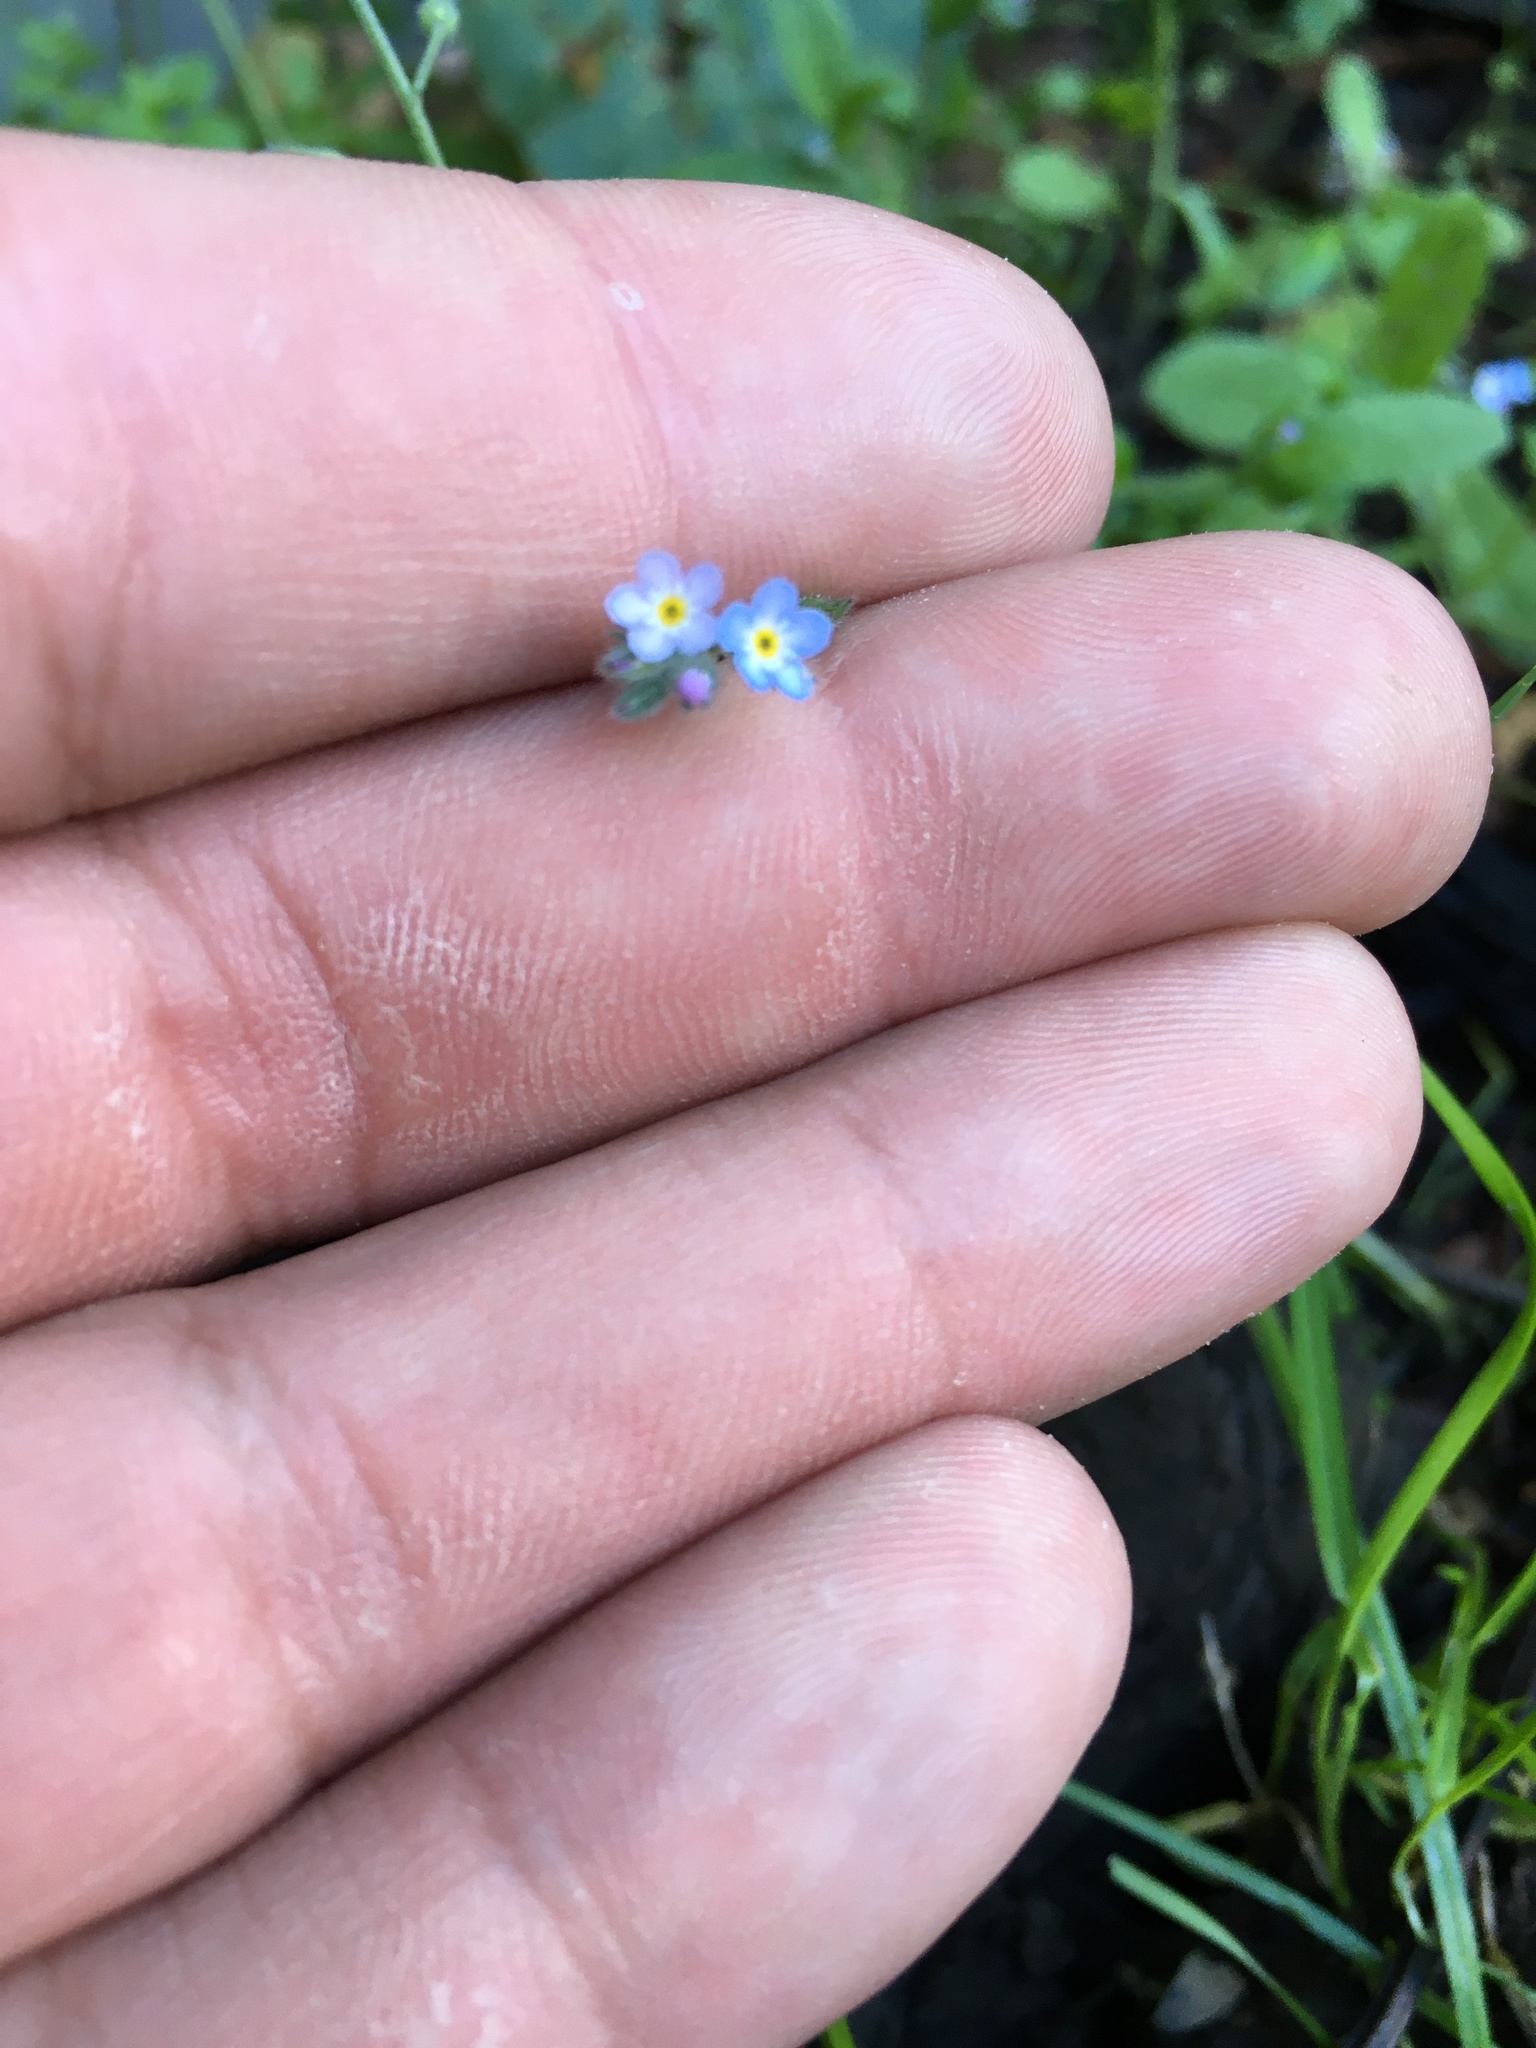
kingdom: Plantae
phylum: Tracheophyta
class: Magnoliopsida
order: Boraginales
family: Boraginaceae
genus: Myosotis
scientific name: Myosotis arvensis
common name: Field forget-me-not
